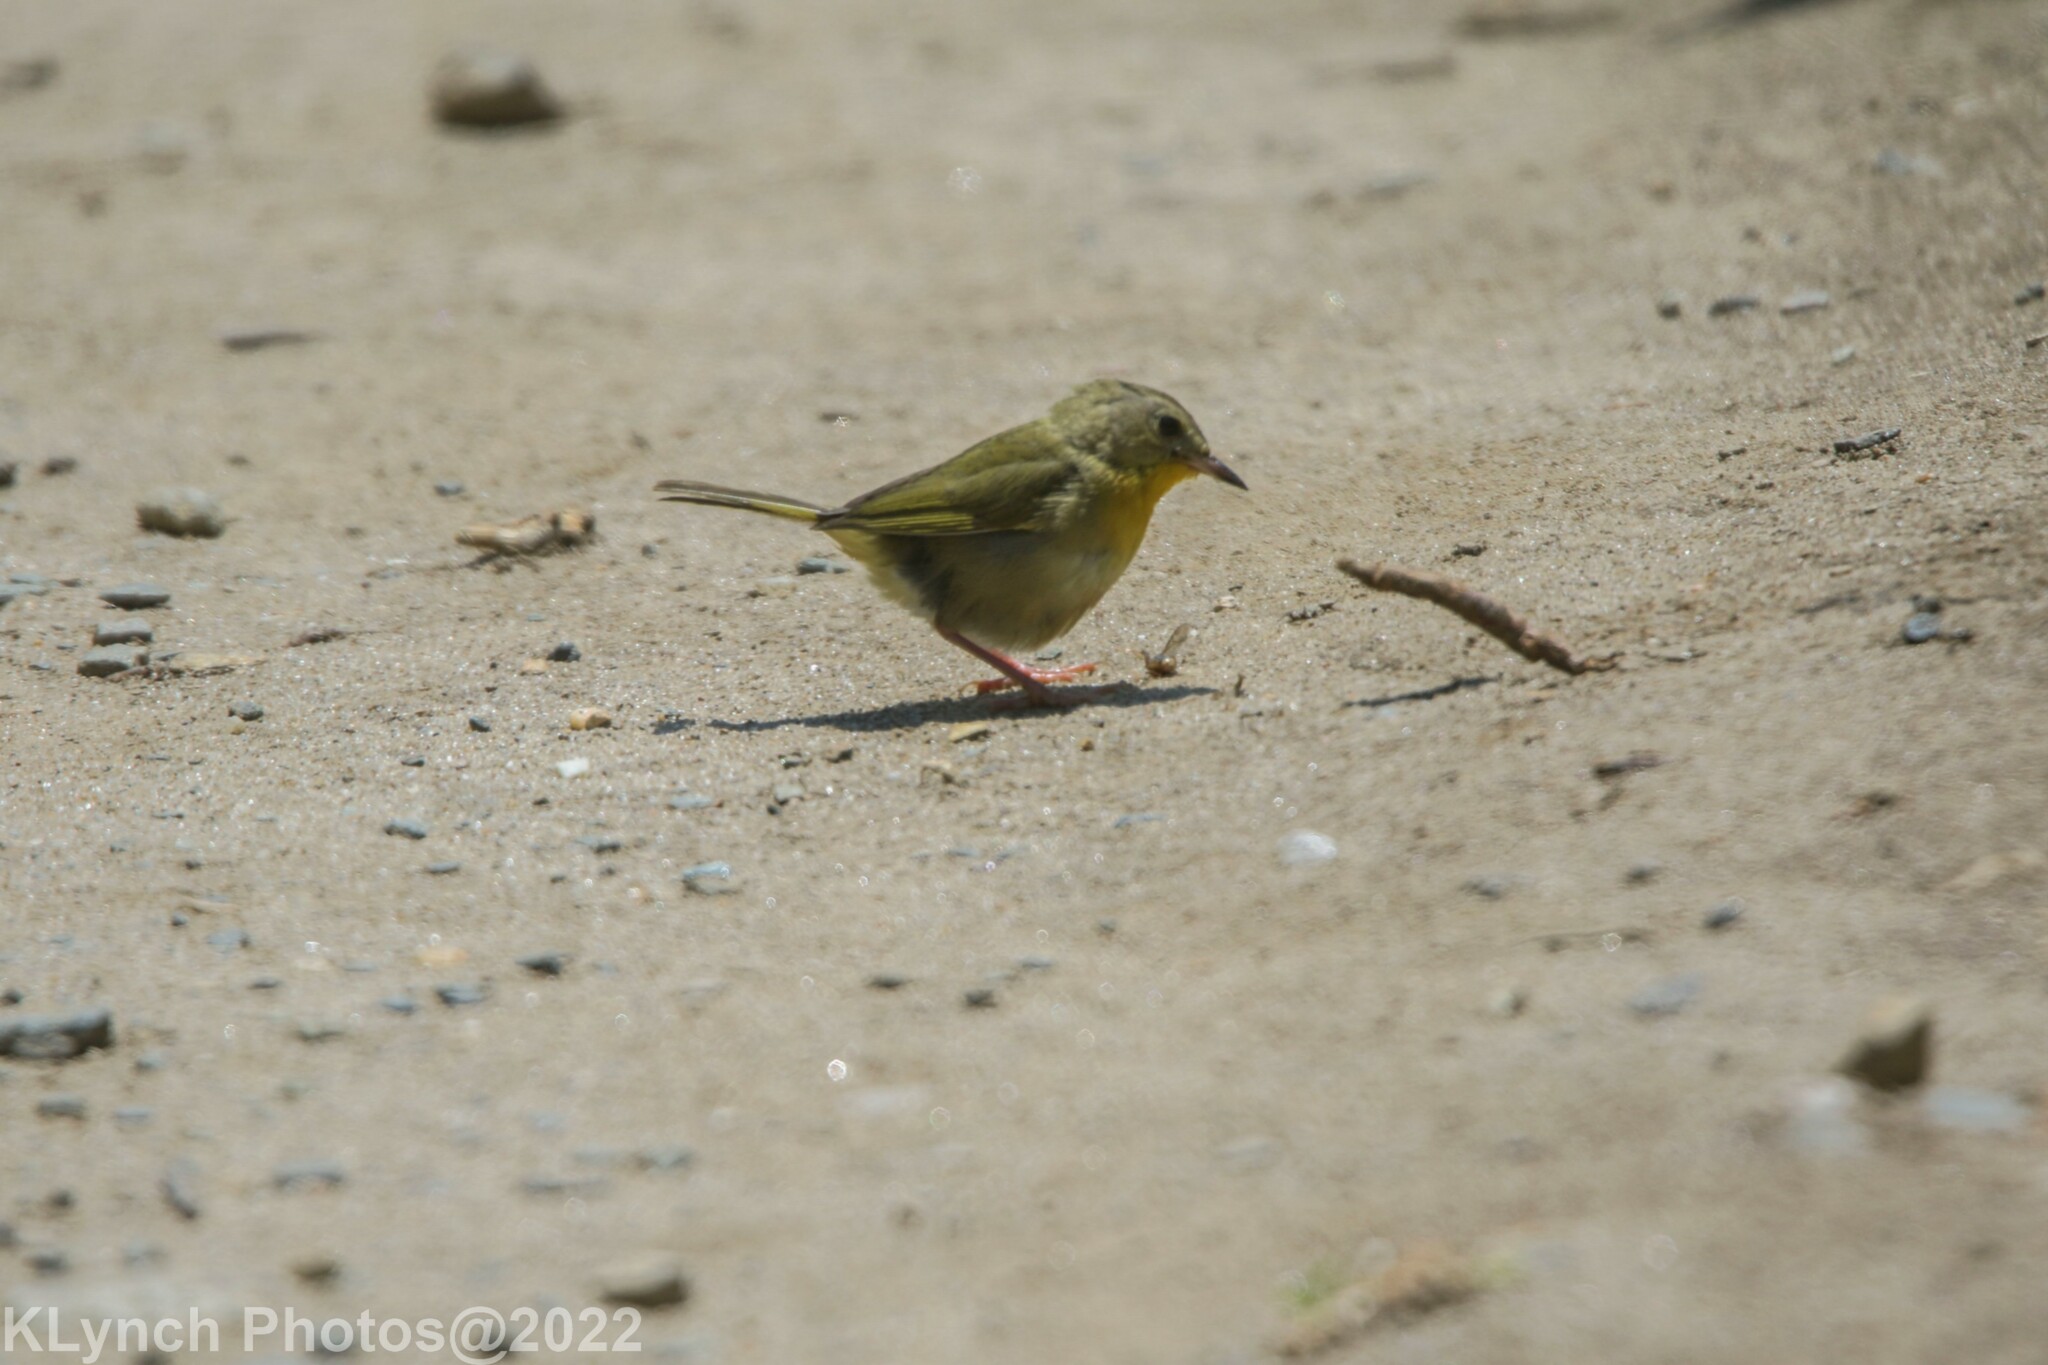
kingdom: Animalia
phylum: Chordata
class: Aves
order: Passeriformes
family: Parulidae
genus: Geothlypis
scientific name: Geothlypis trichas
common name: Common yellowthroat
